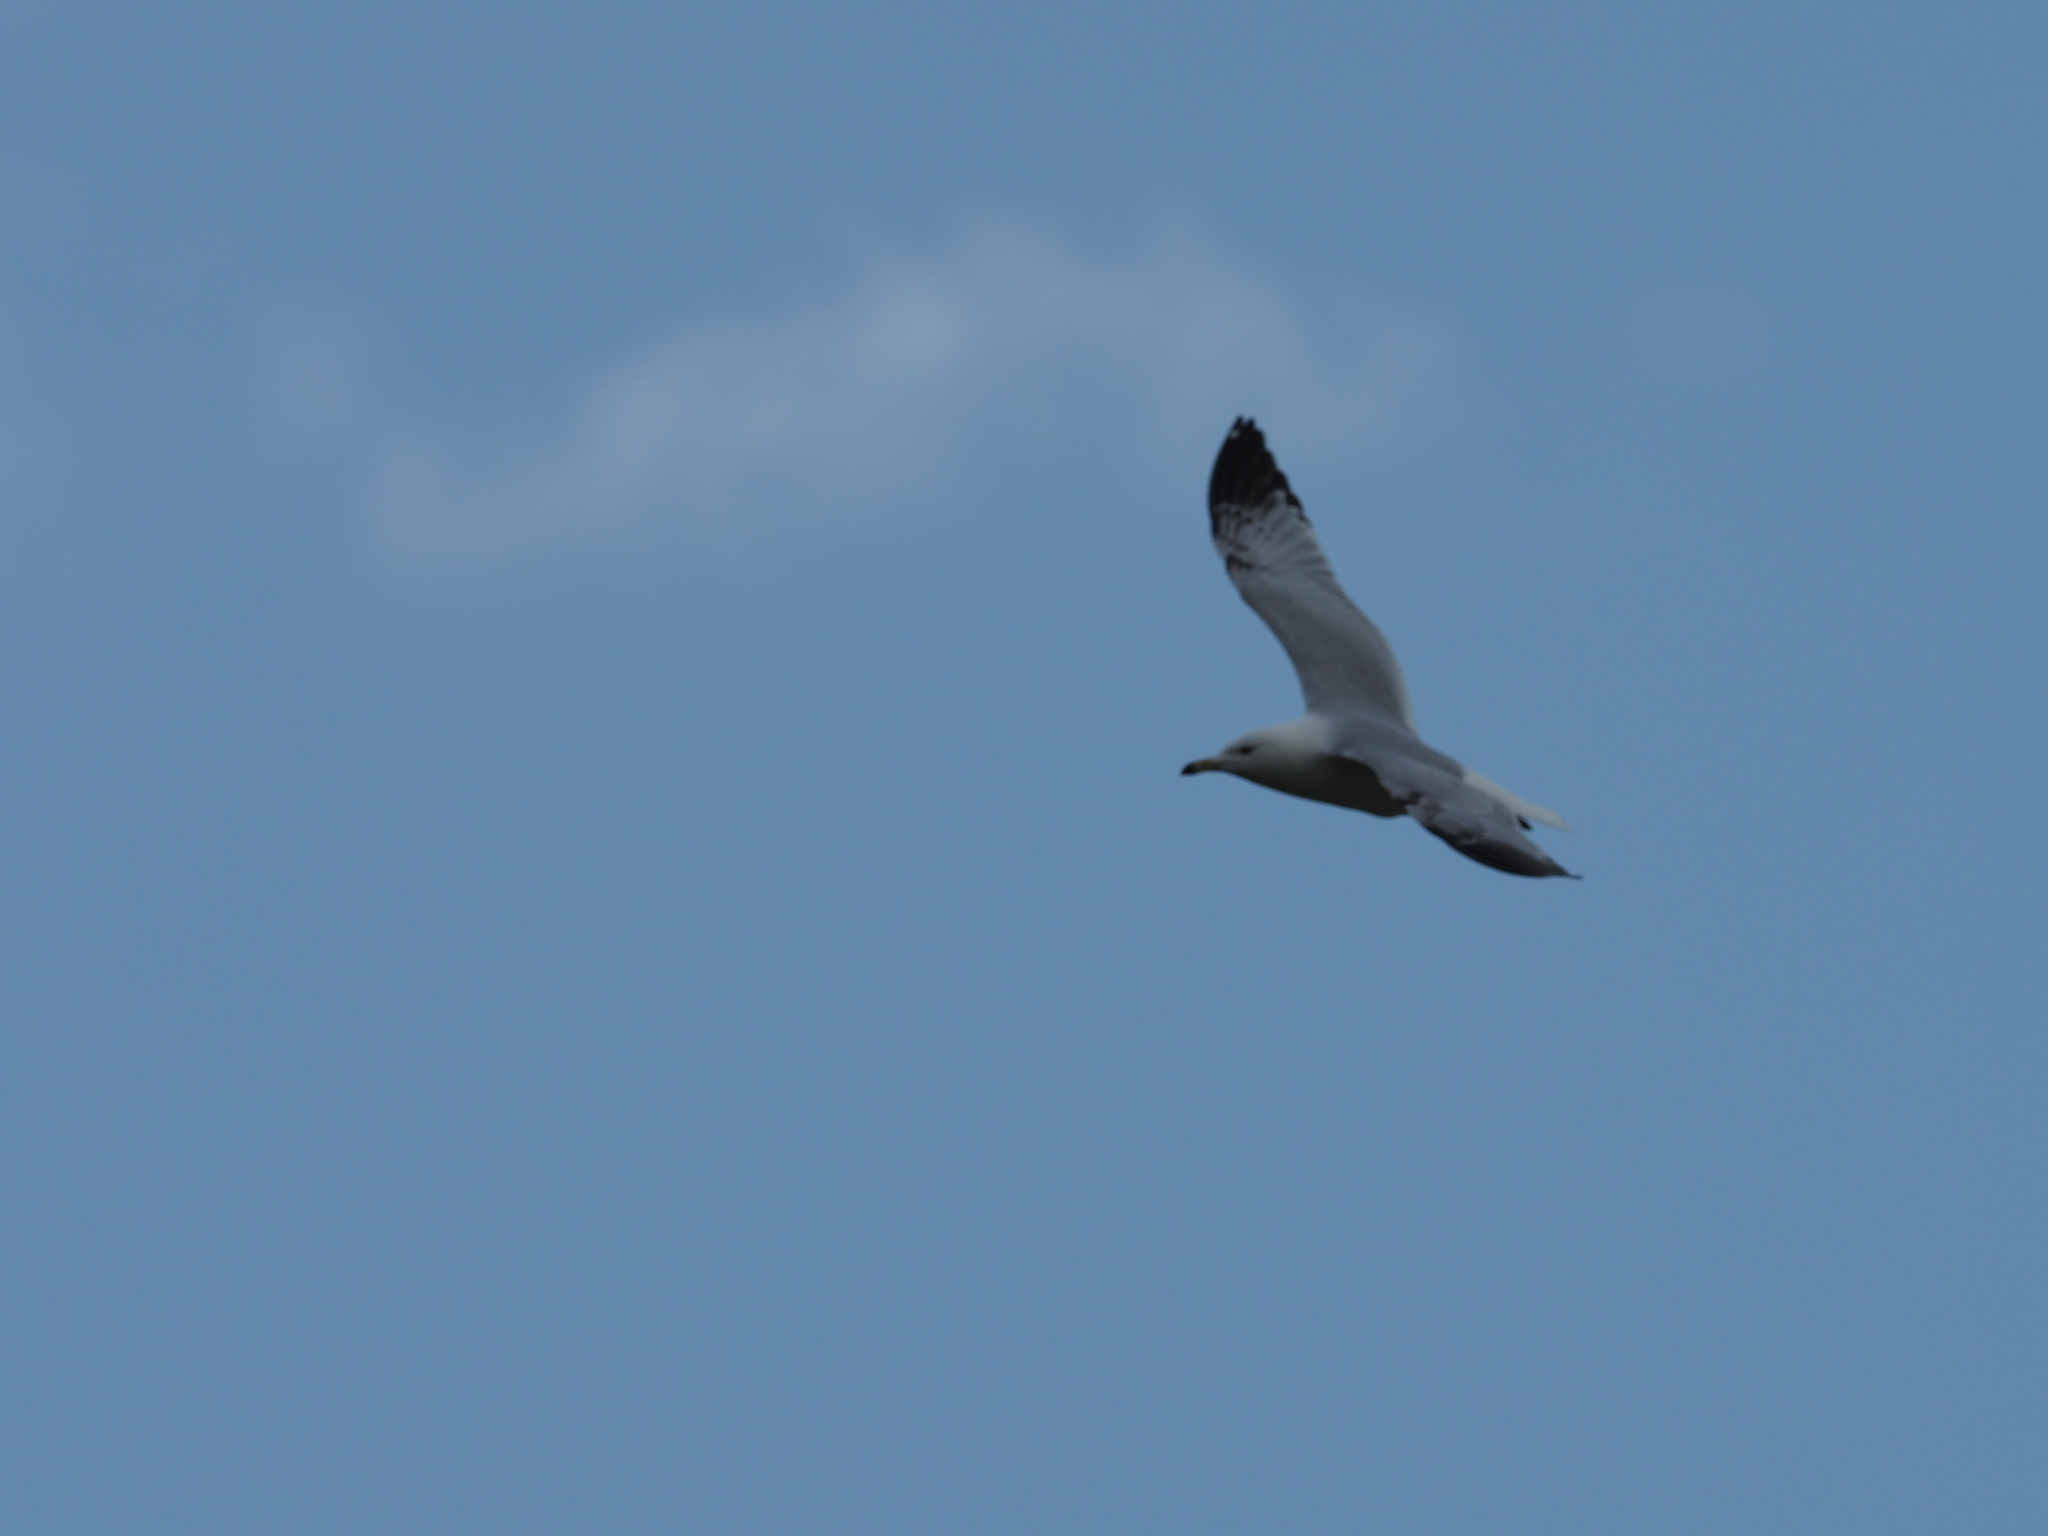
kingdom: Animalia
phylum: Chordata
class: Aves
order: Charadriiformes
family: Laridae
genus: Larus
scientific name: Larus delawarensis
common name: Ring-billed gull
